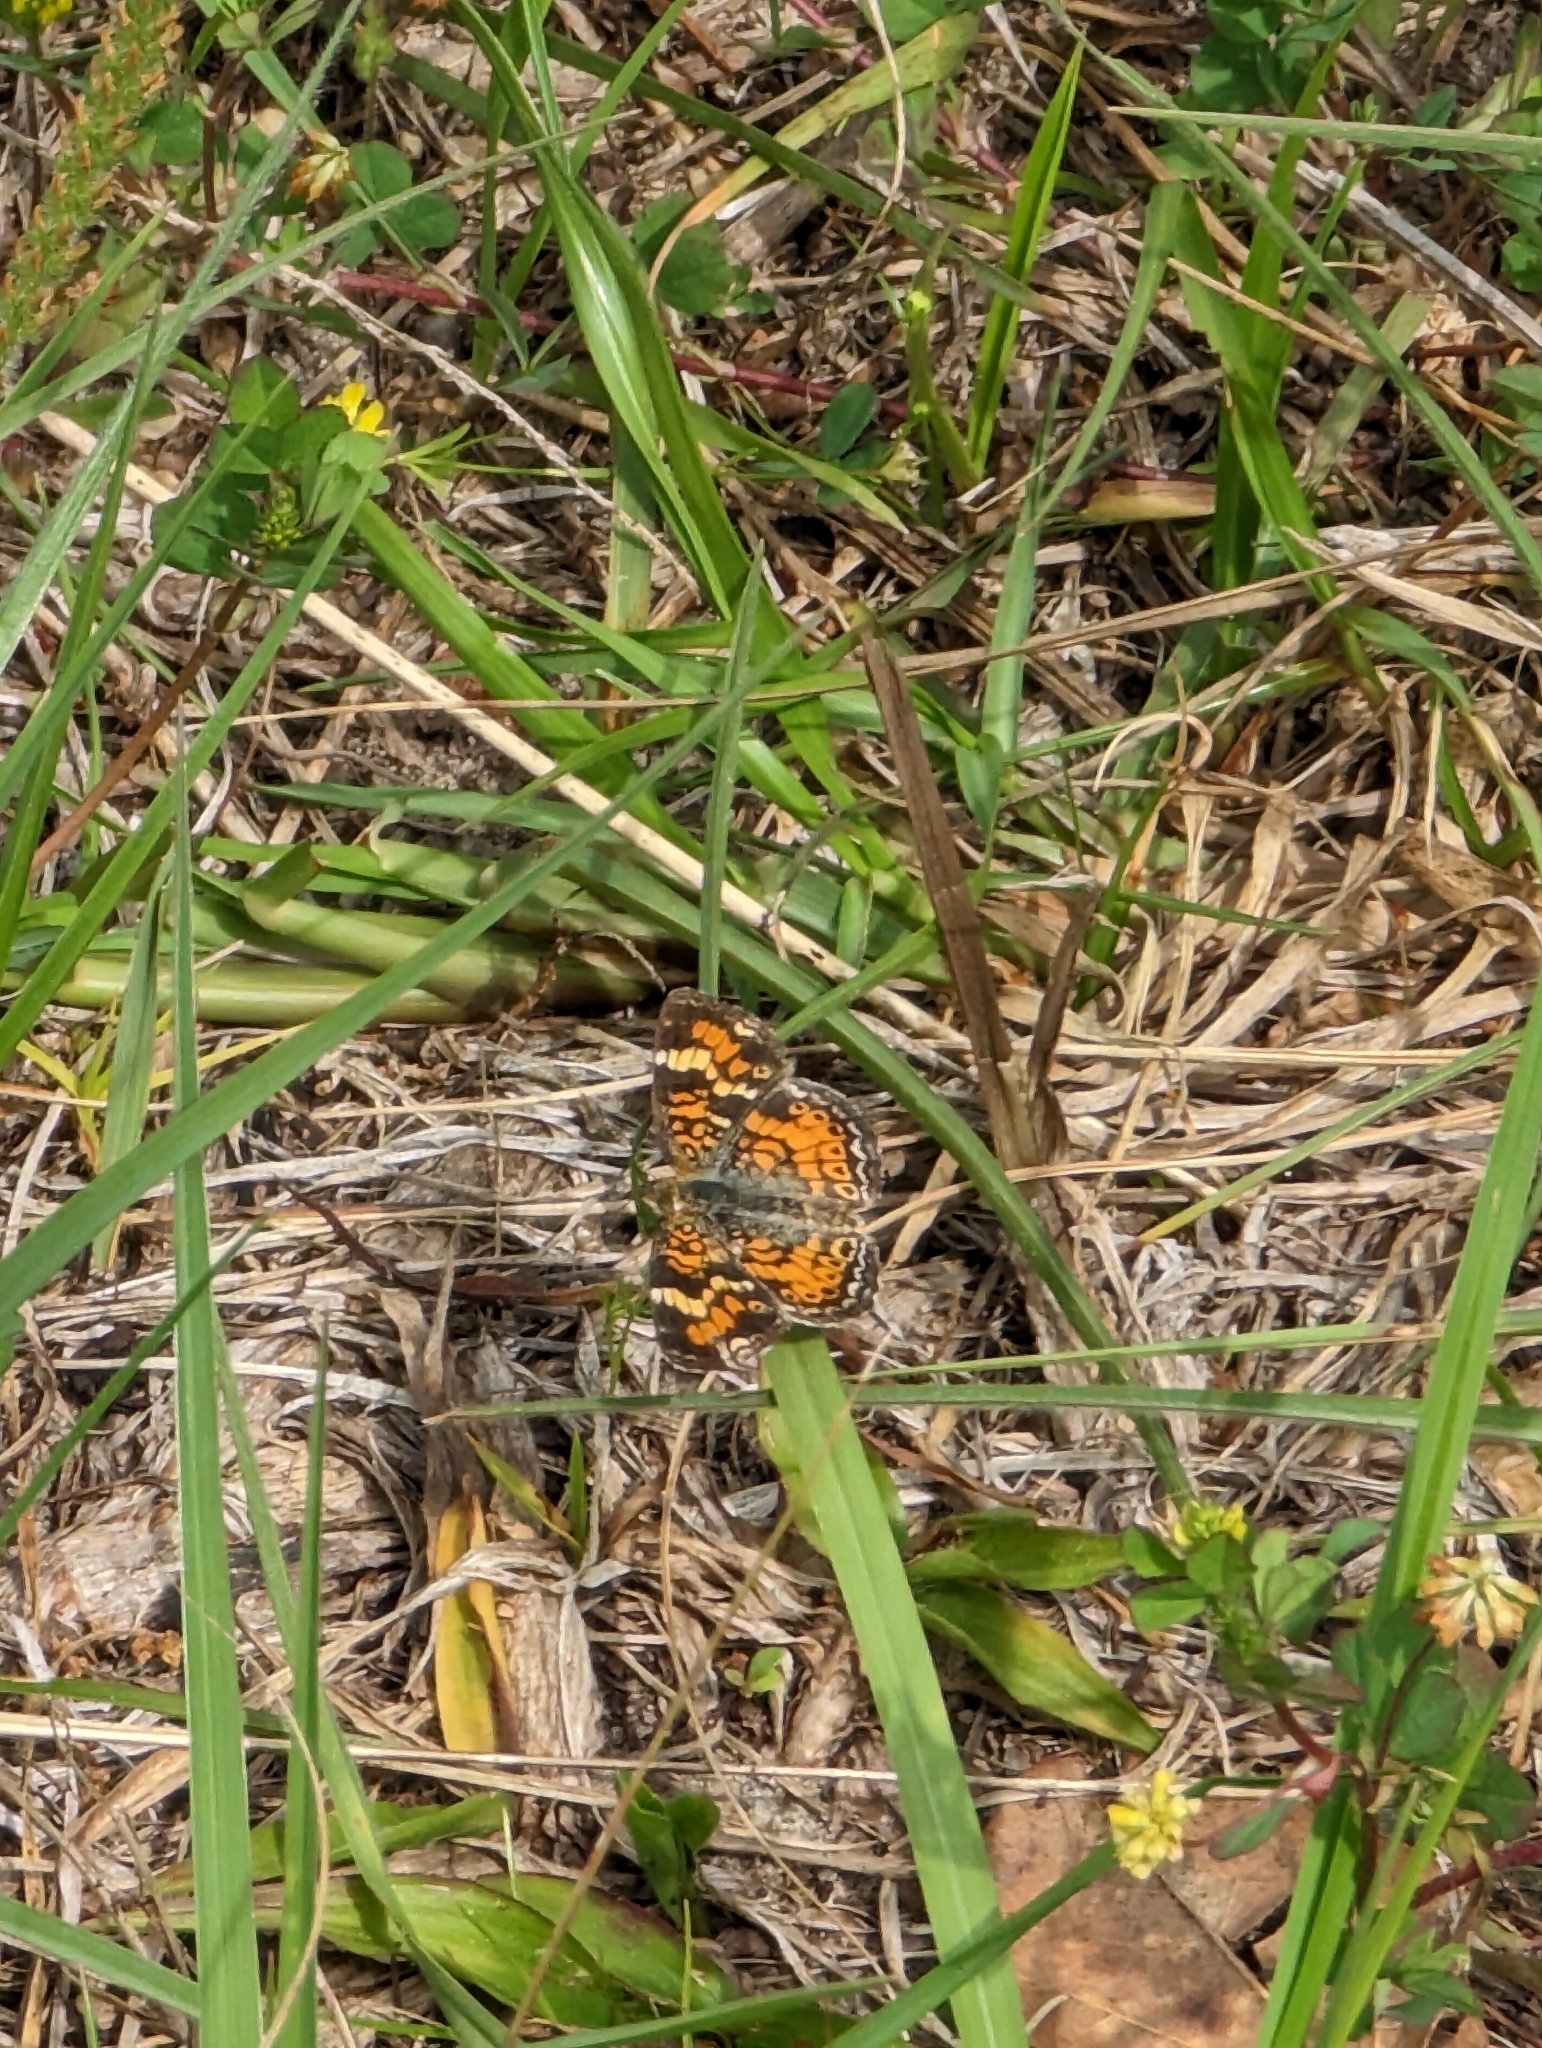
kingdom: Animalia
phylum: Arthropoda
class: Insecta
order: Lepidoptera
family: Nymphalidae
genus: Phyciodes
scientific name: Phyciodes phaon
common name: Phaon crescent
